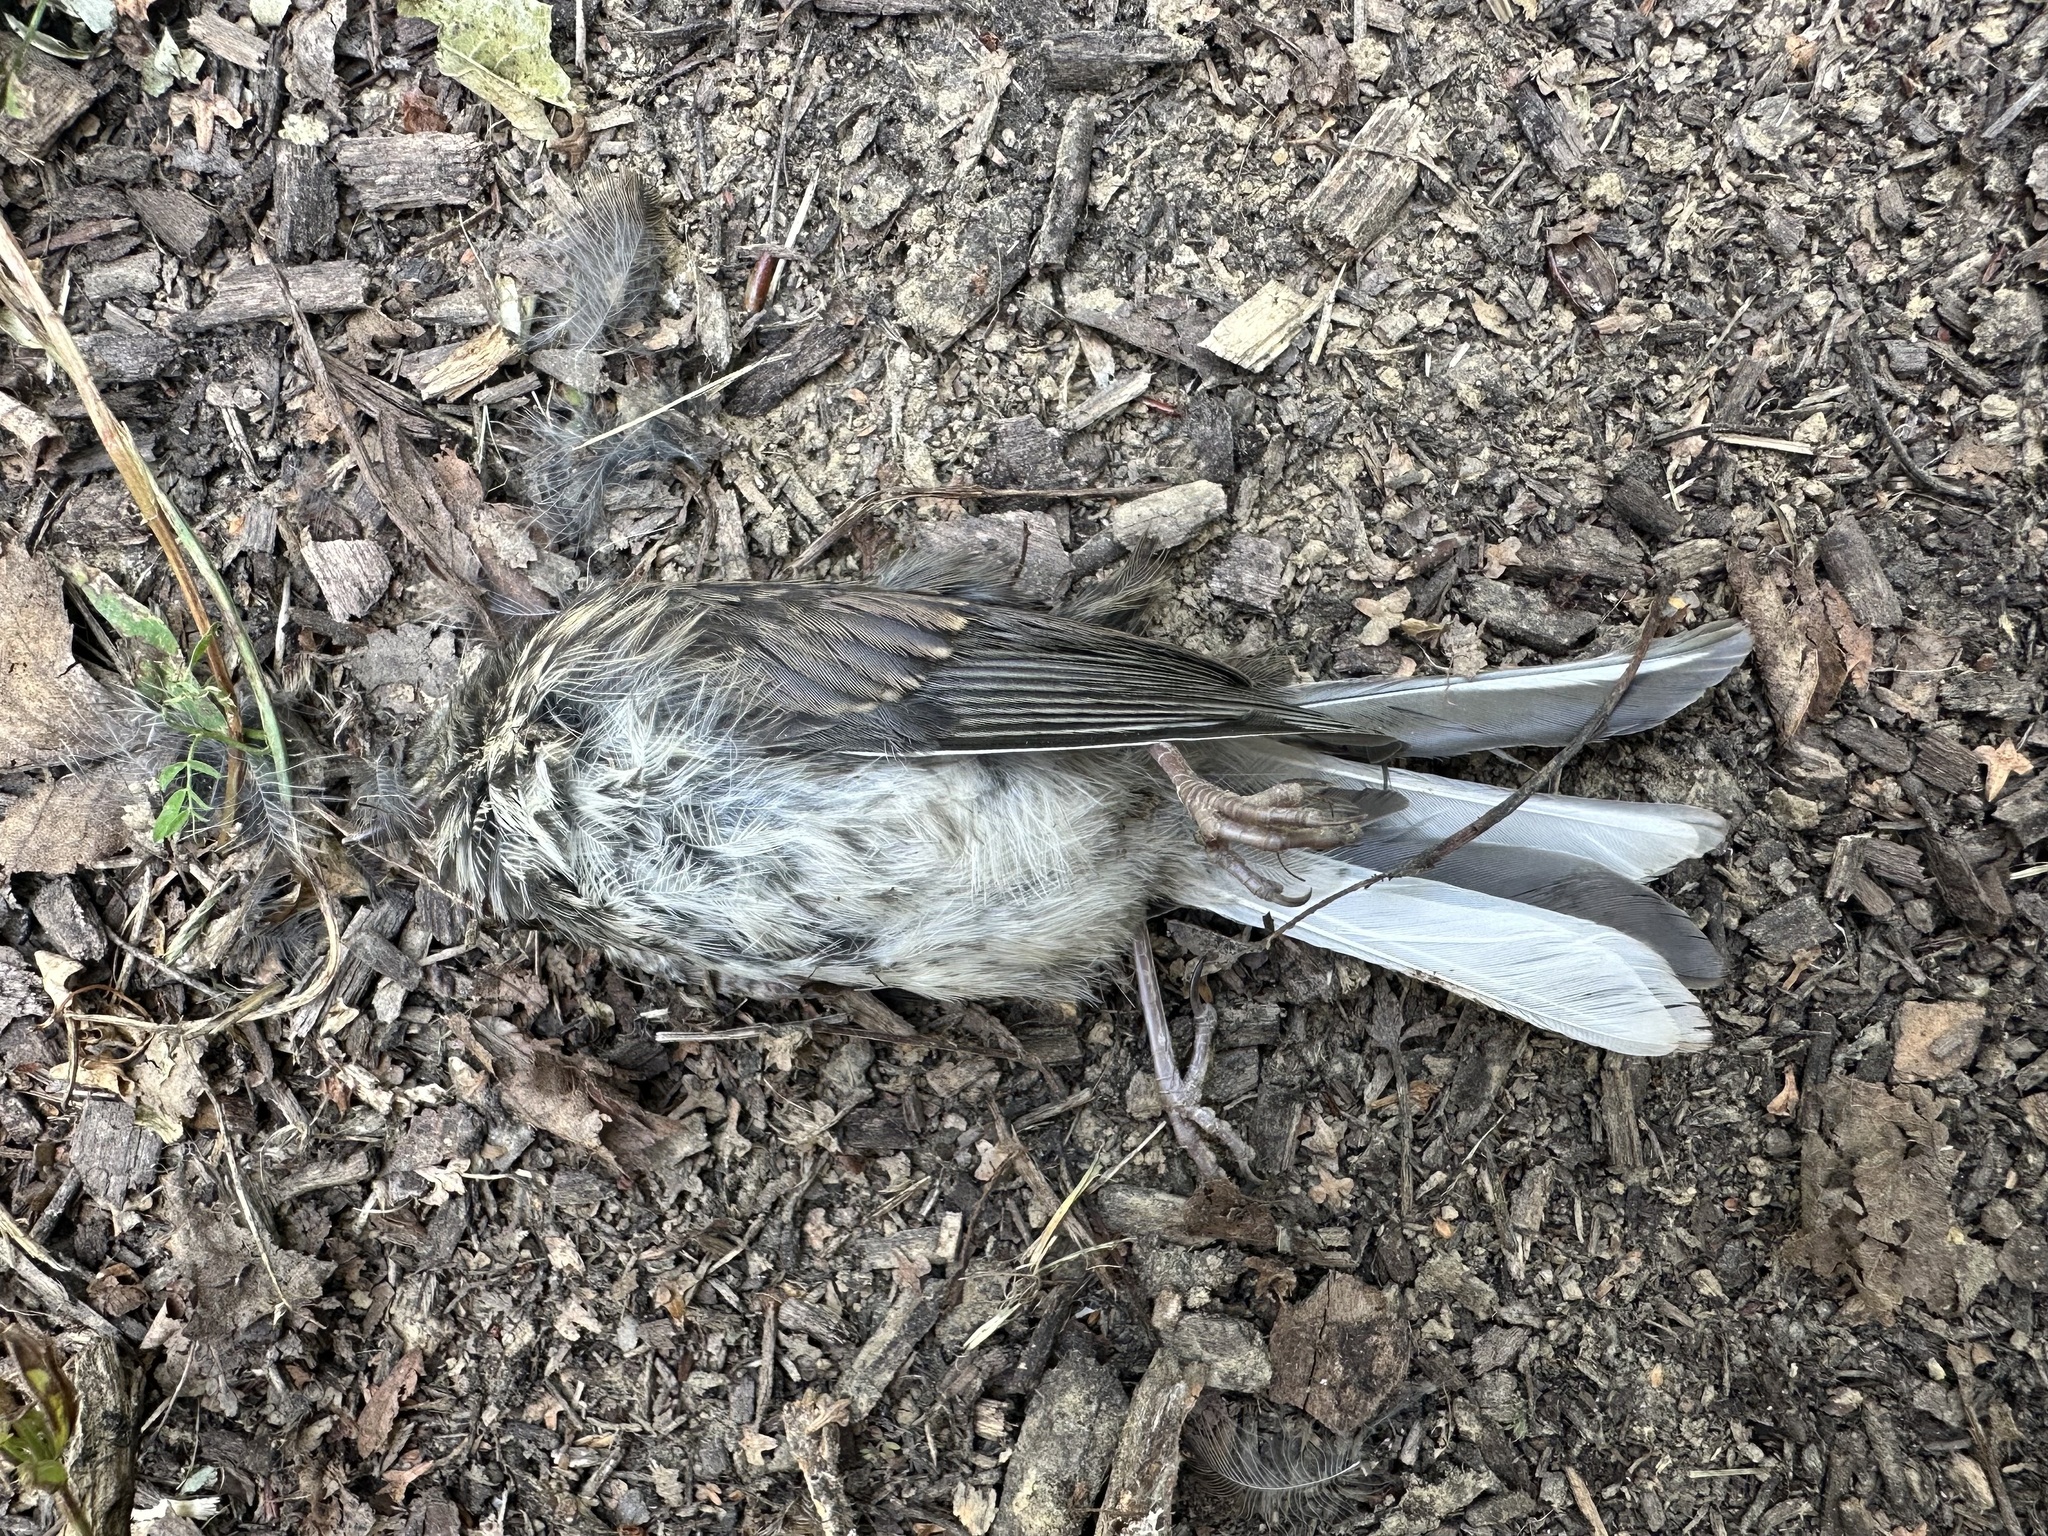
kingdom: Animalia
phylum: Chordata
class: Aves
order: Passeriformes
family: Passerellidae
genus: Junco
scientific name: Junco hyemalis
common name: Dark-eyed junco
